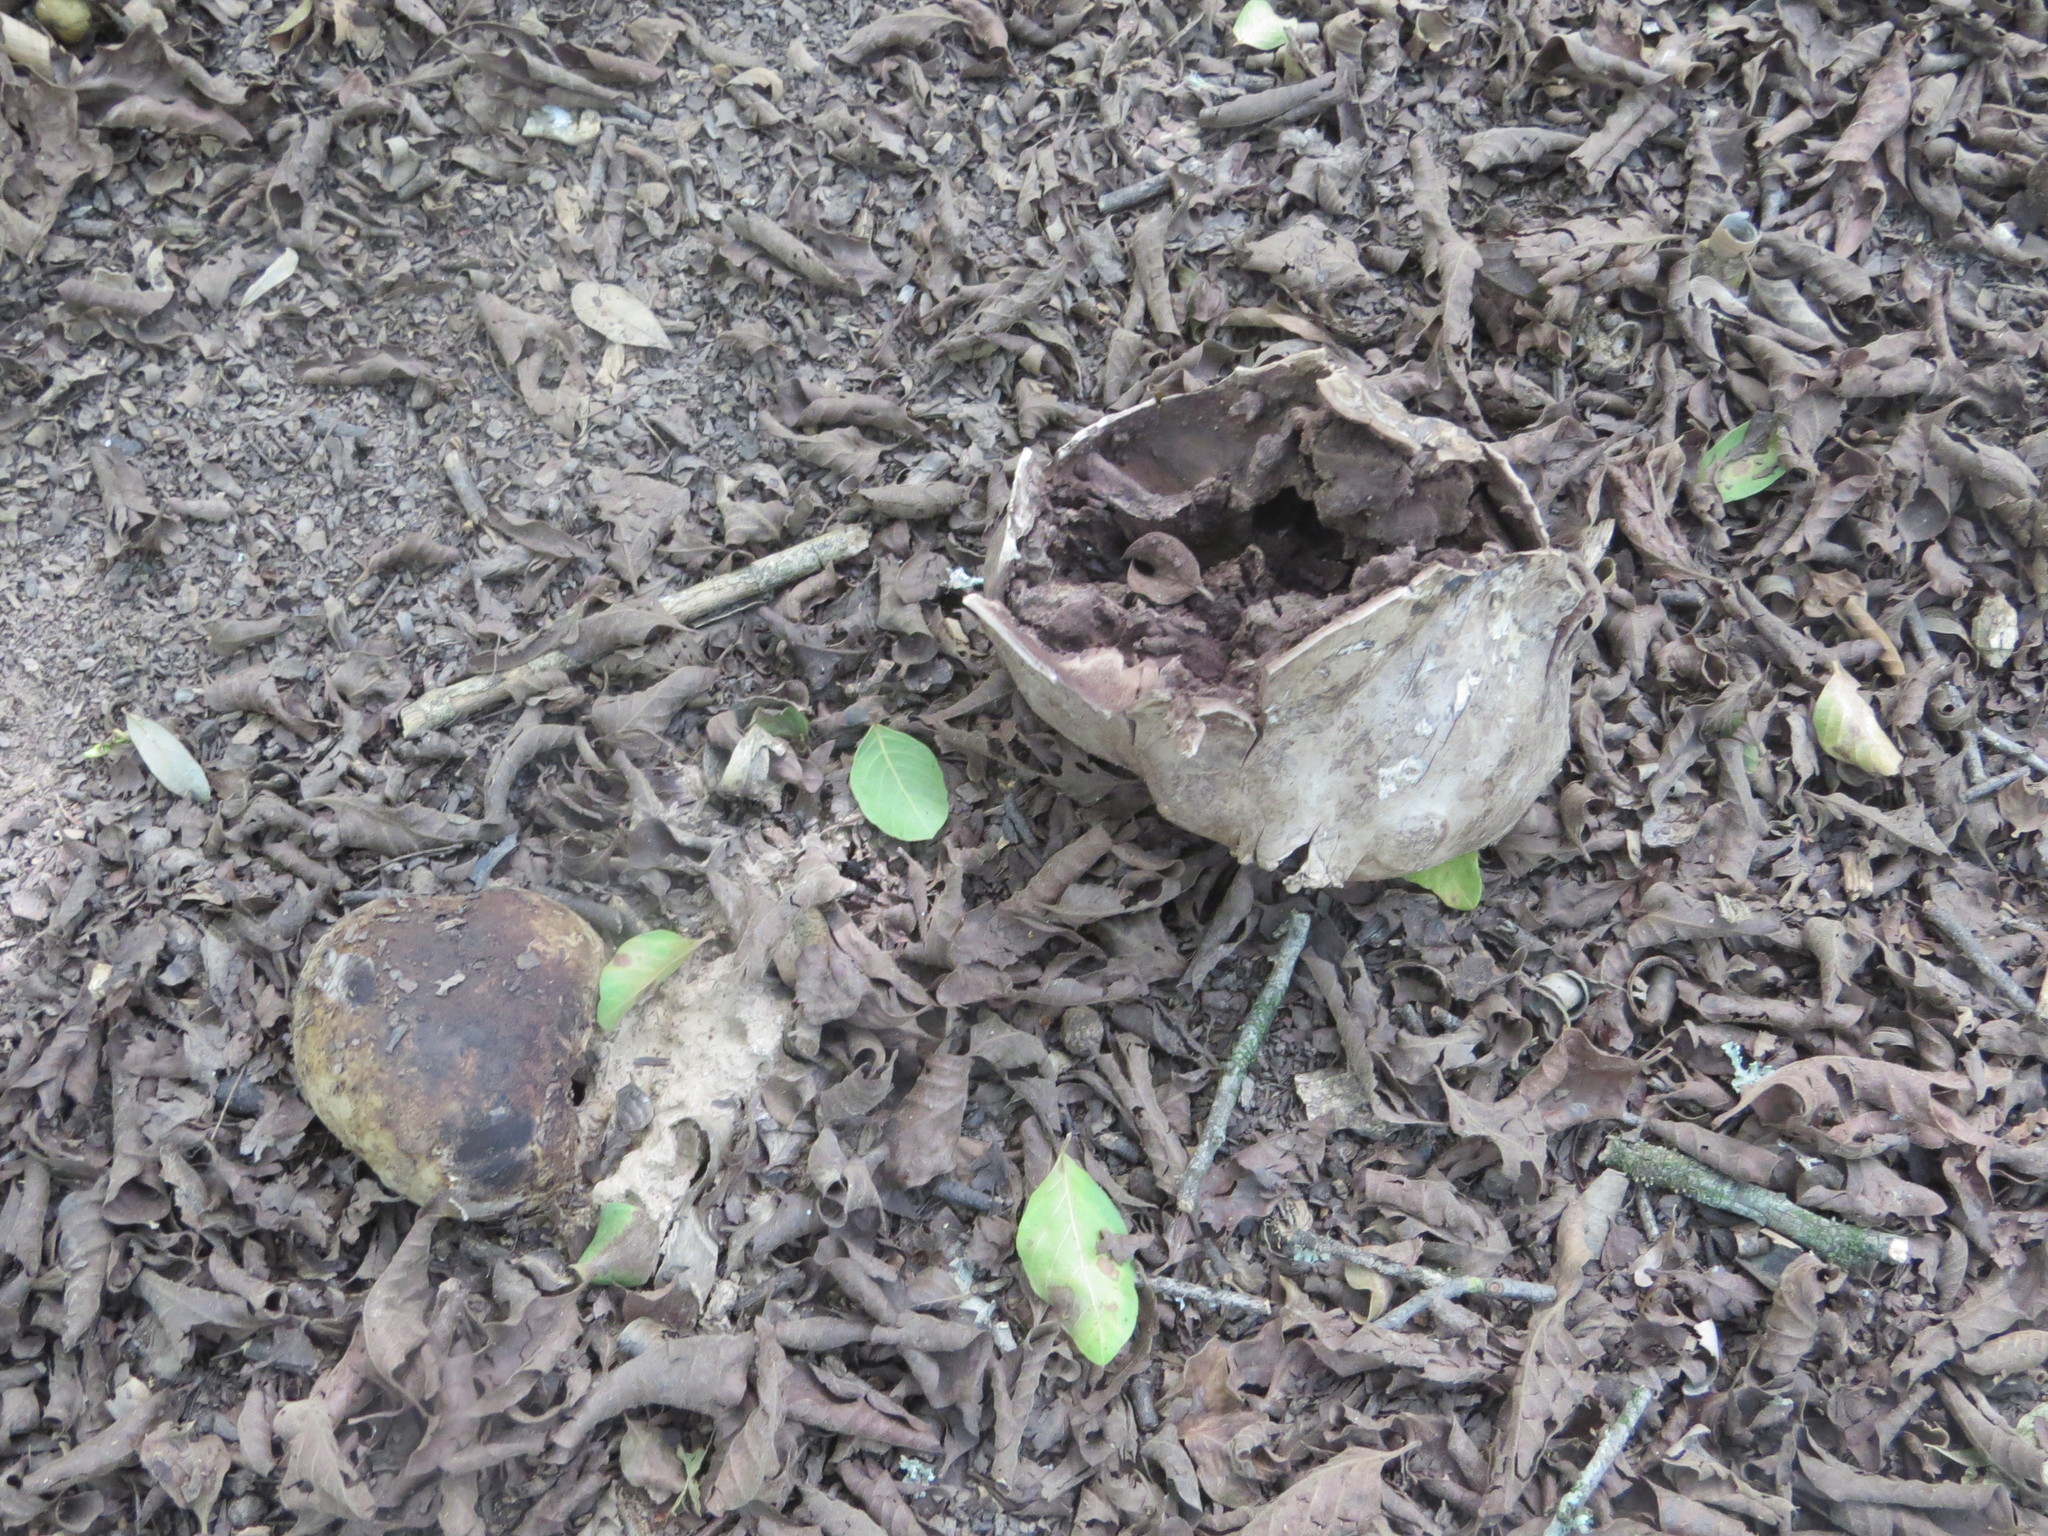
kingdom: Fungi
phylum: Basidiomycota
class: Agaricomycetes
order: Agaricales
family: Agaricaceae
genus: Mycenastrum
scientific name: Mycenastrum corium
